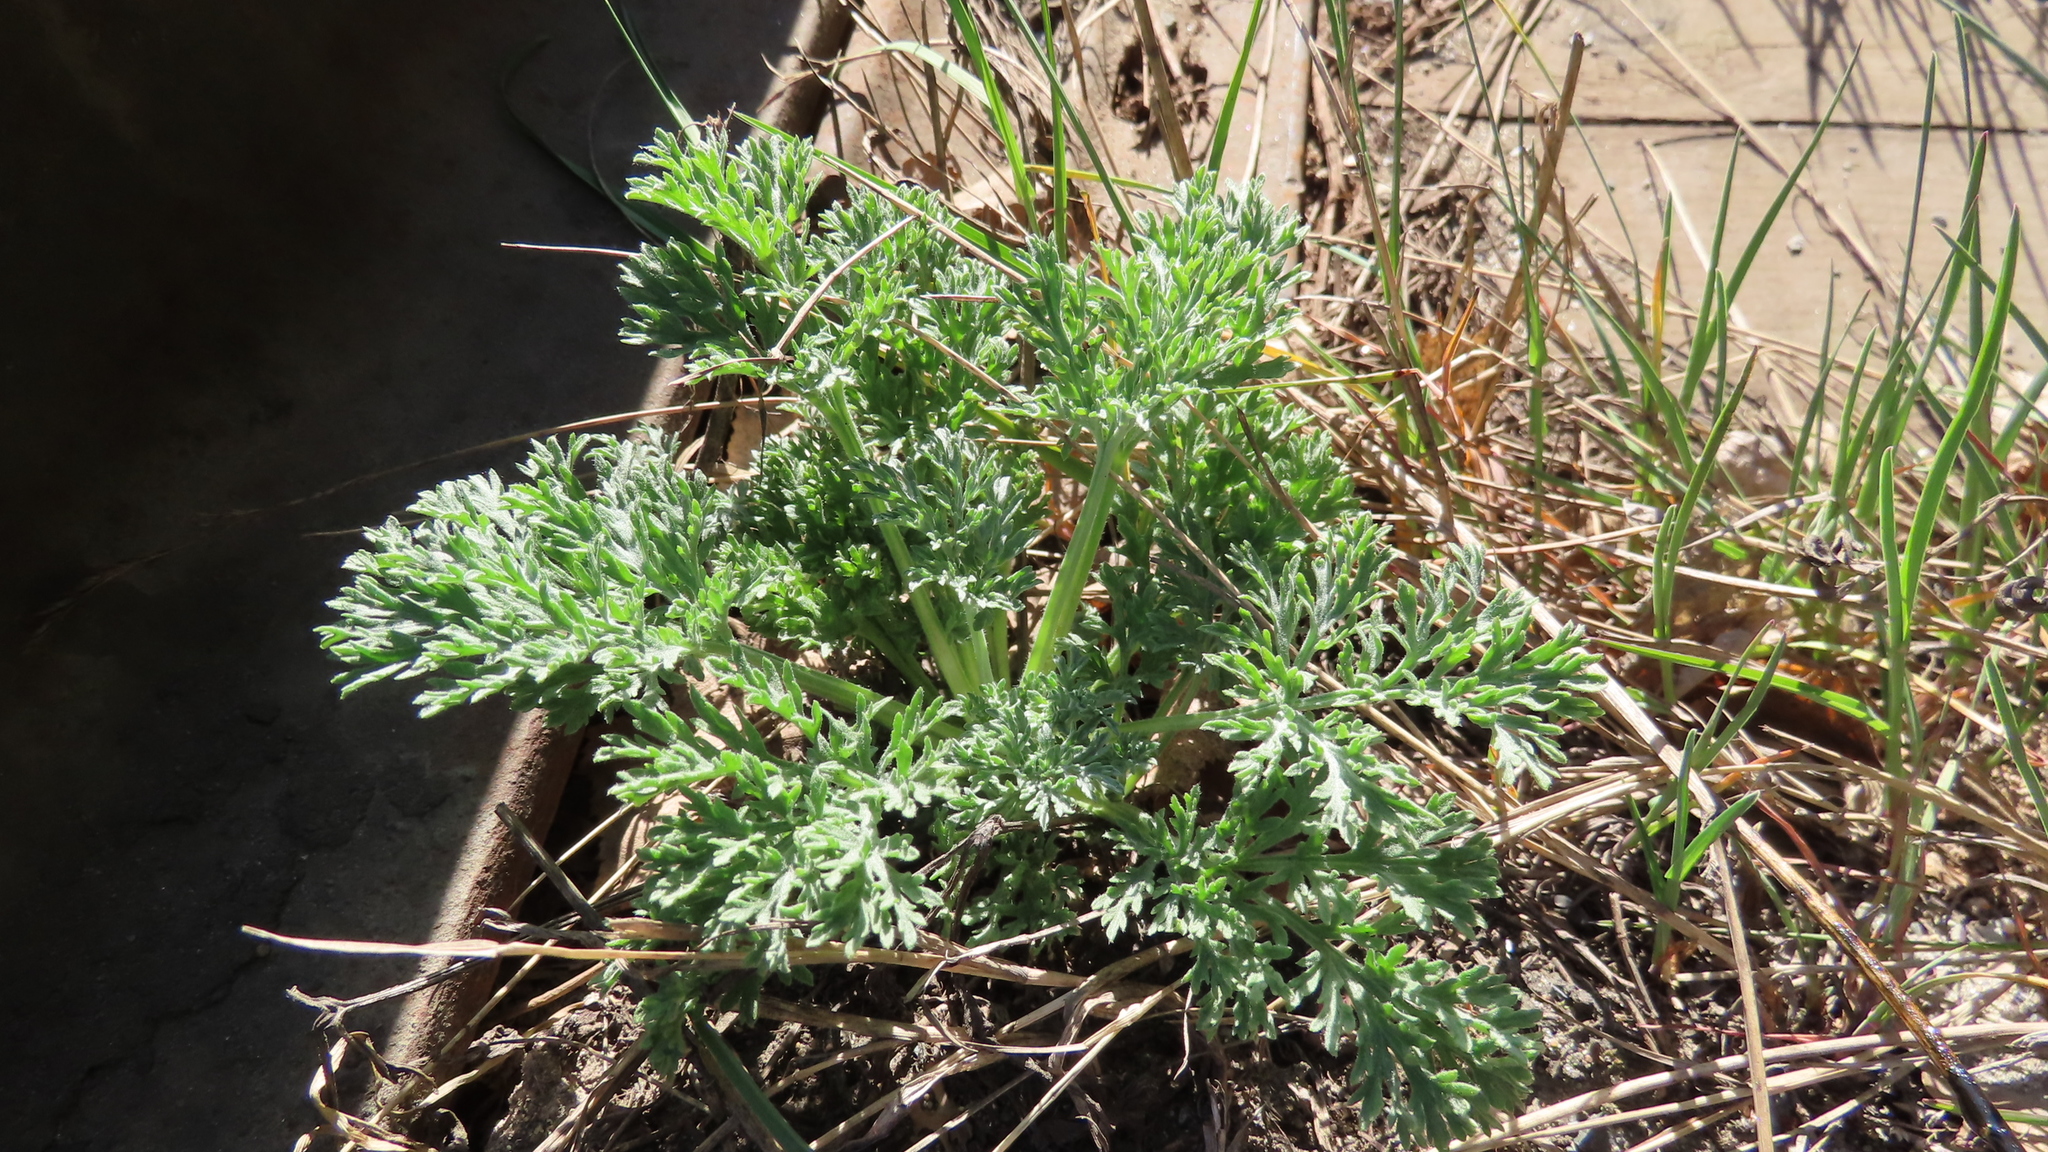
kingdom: Plantae
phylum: Tracheophyta
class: Magnoliopsida
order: Asterales
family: Asteraceae
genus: Artemisia
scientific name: Artemisia absinthium
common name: Wormwood
